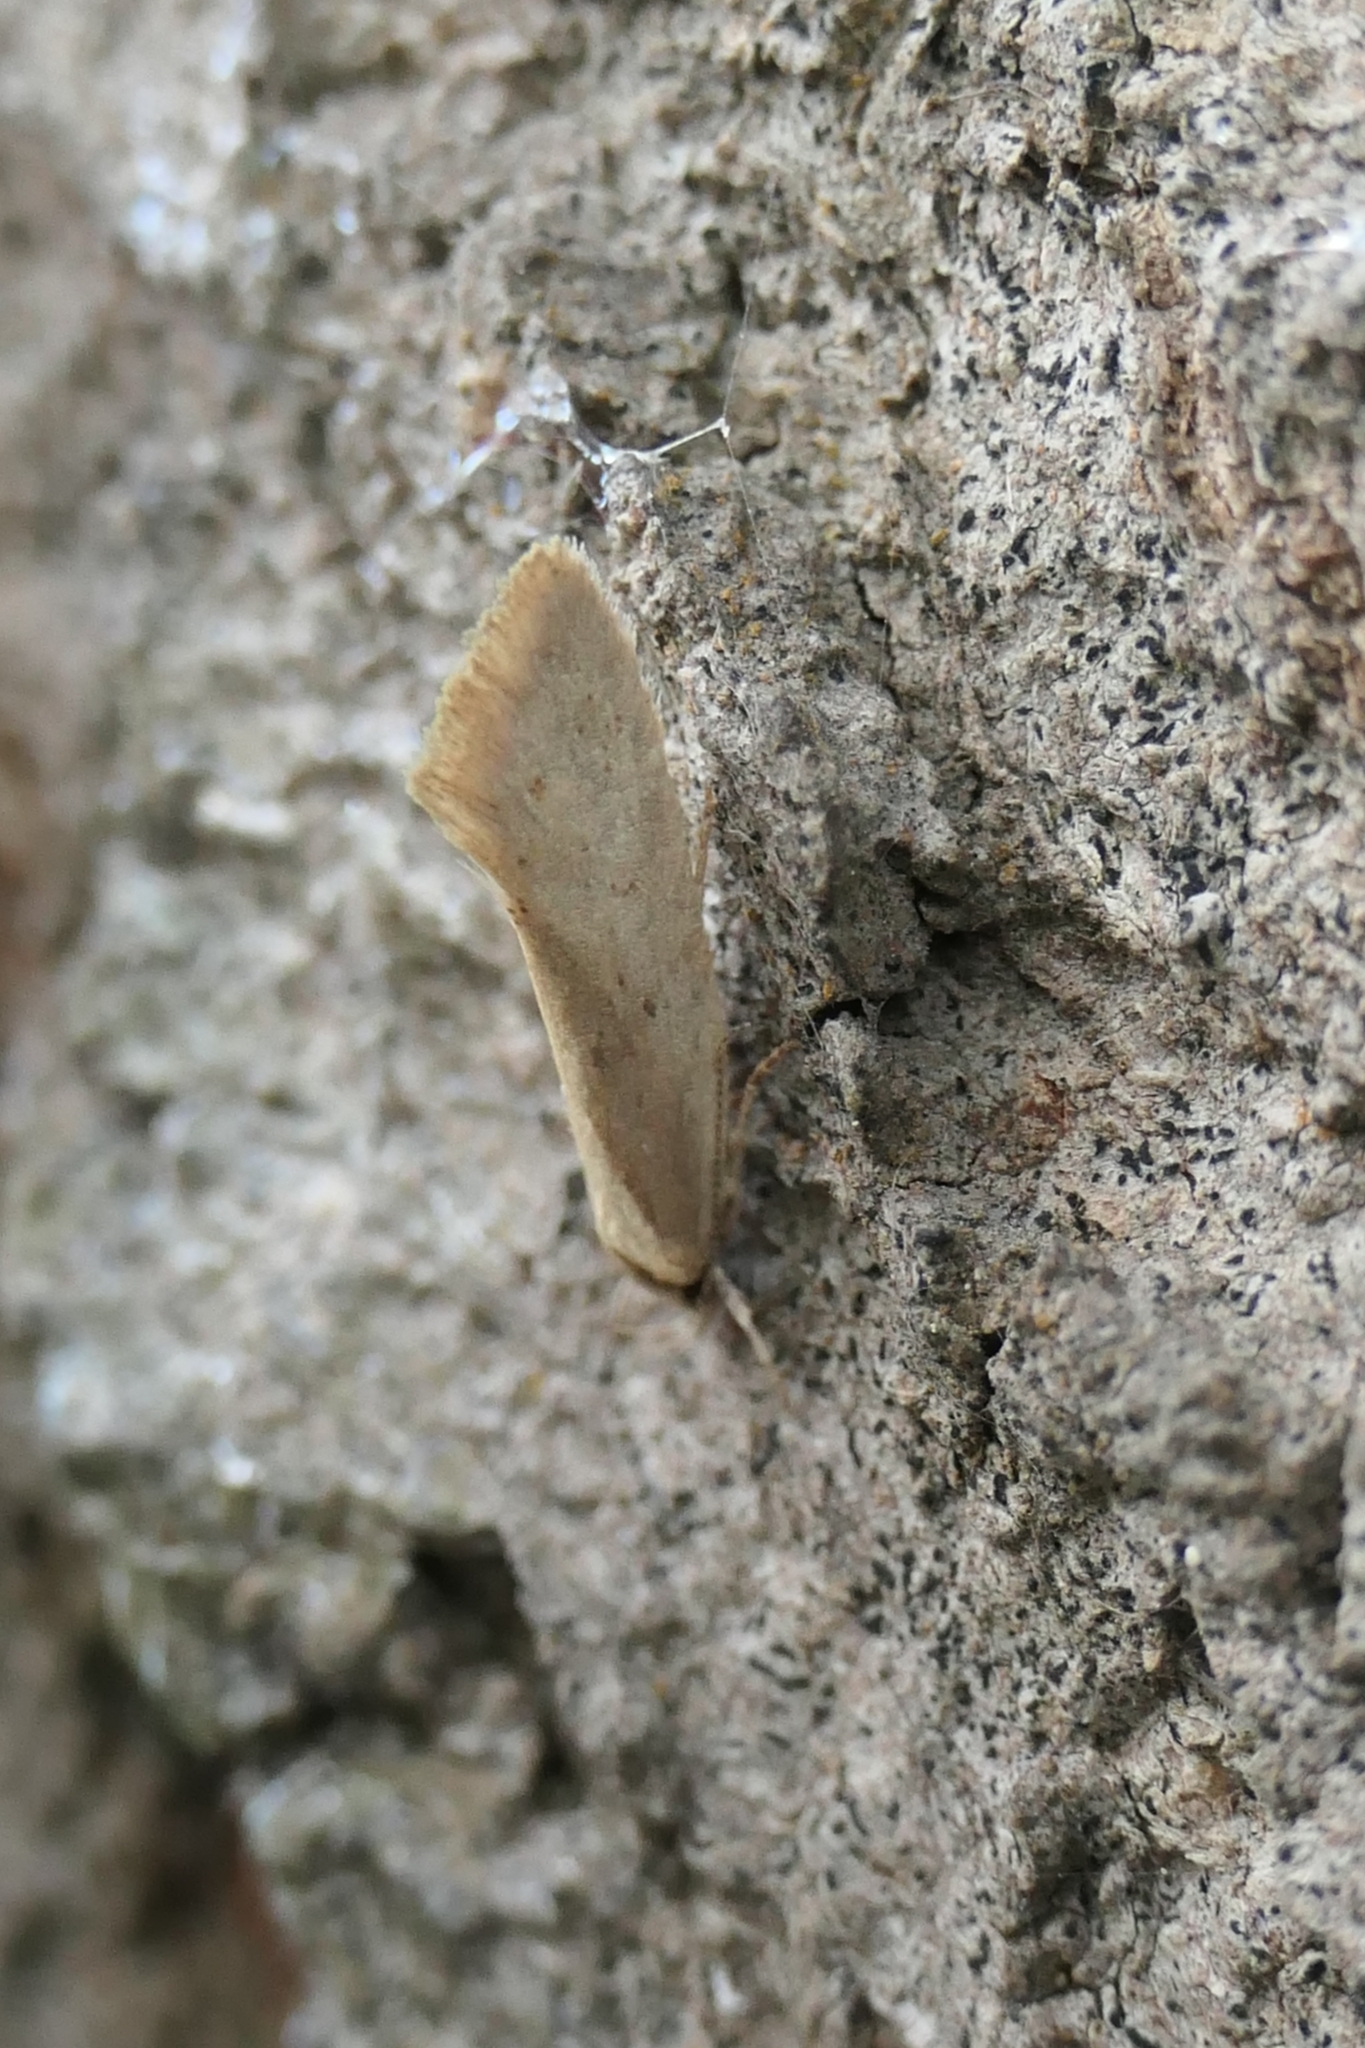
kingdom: Animalia
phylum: Arthropoda
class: Insecta
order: Lepidoptera
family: Oecophoridae
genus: Tingena
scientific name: Tingena chloradelpha
